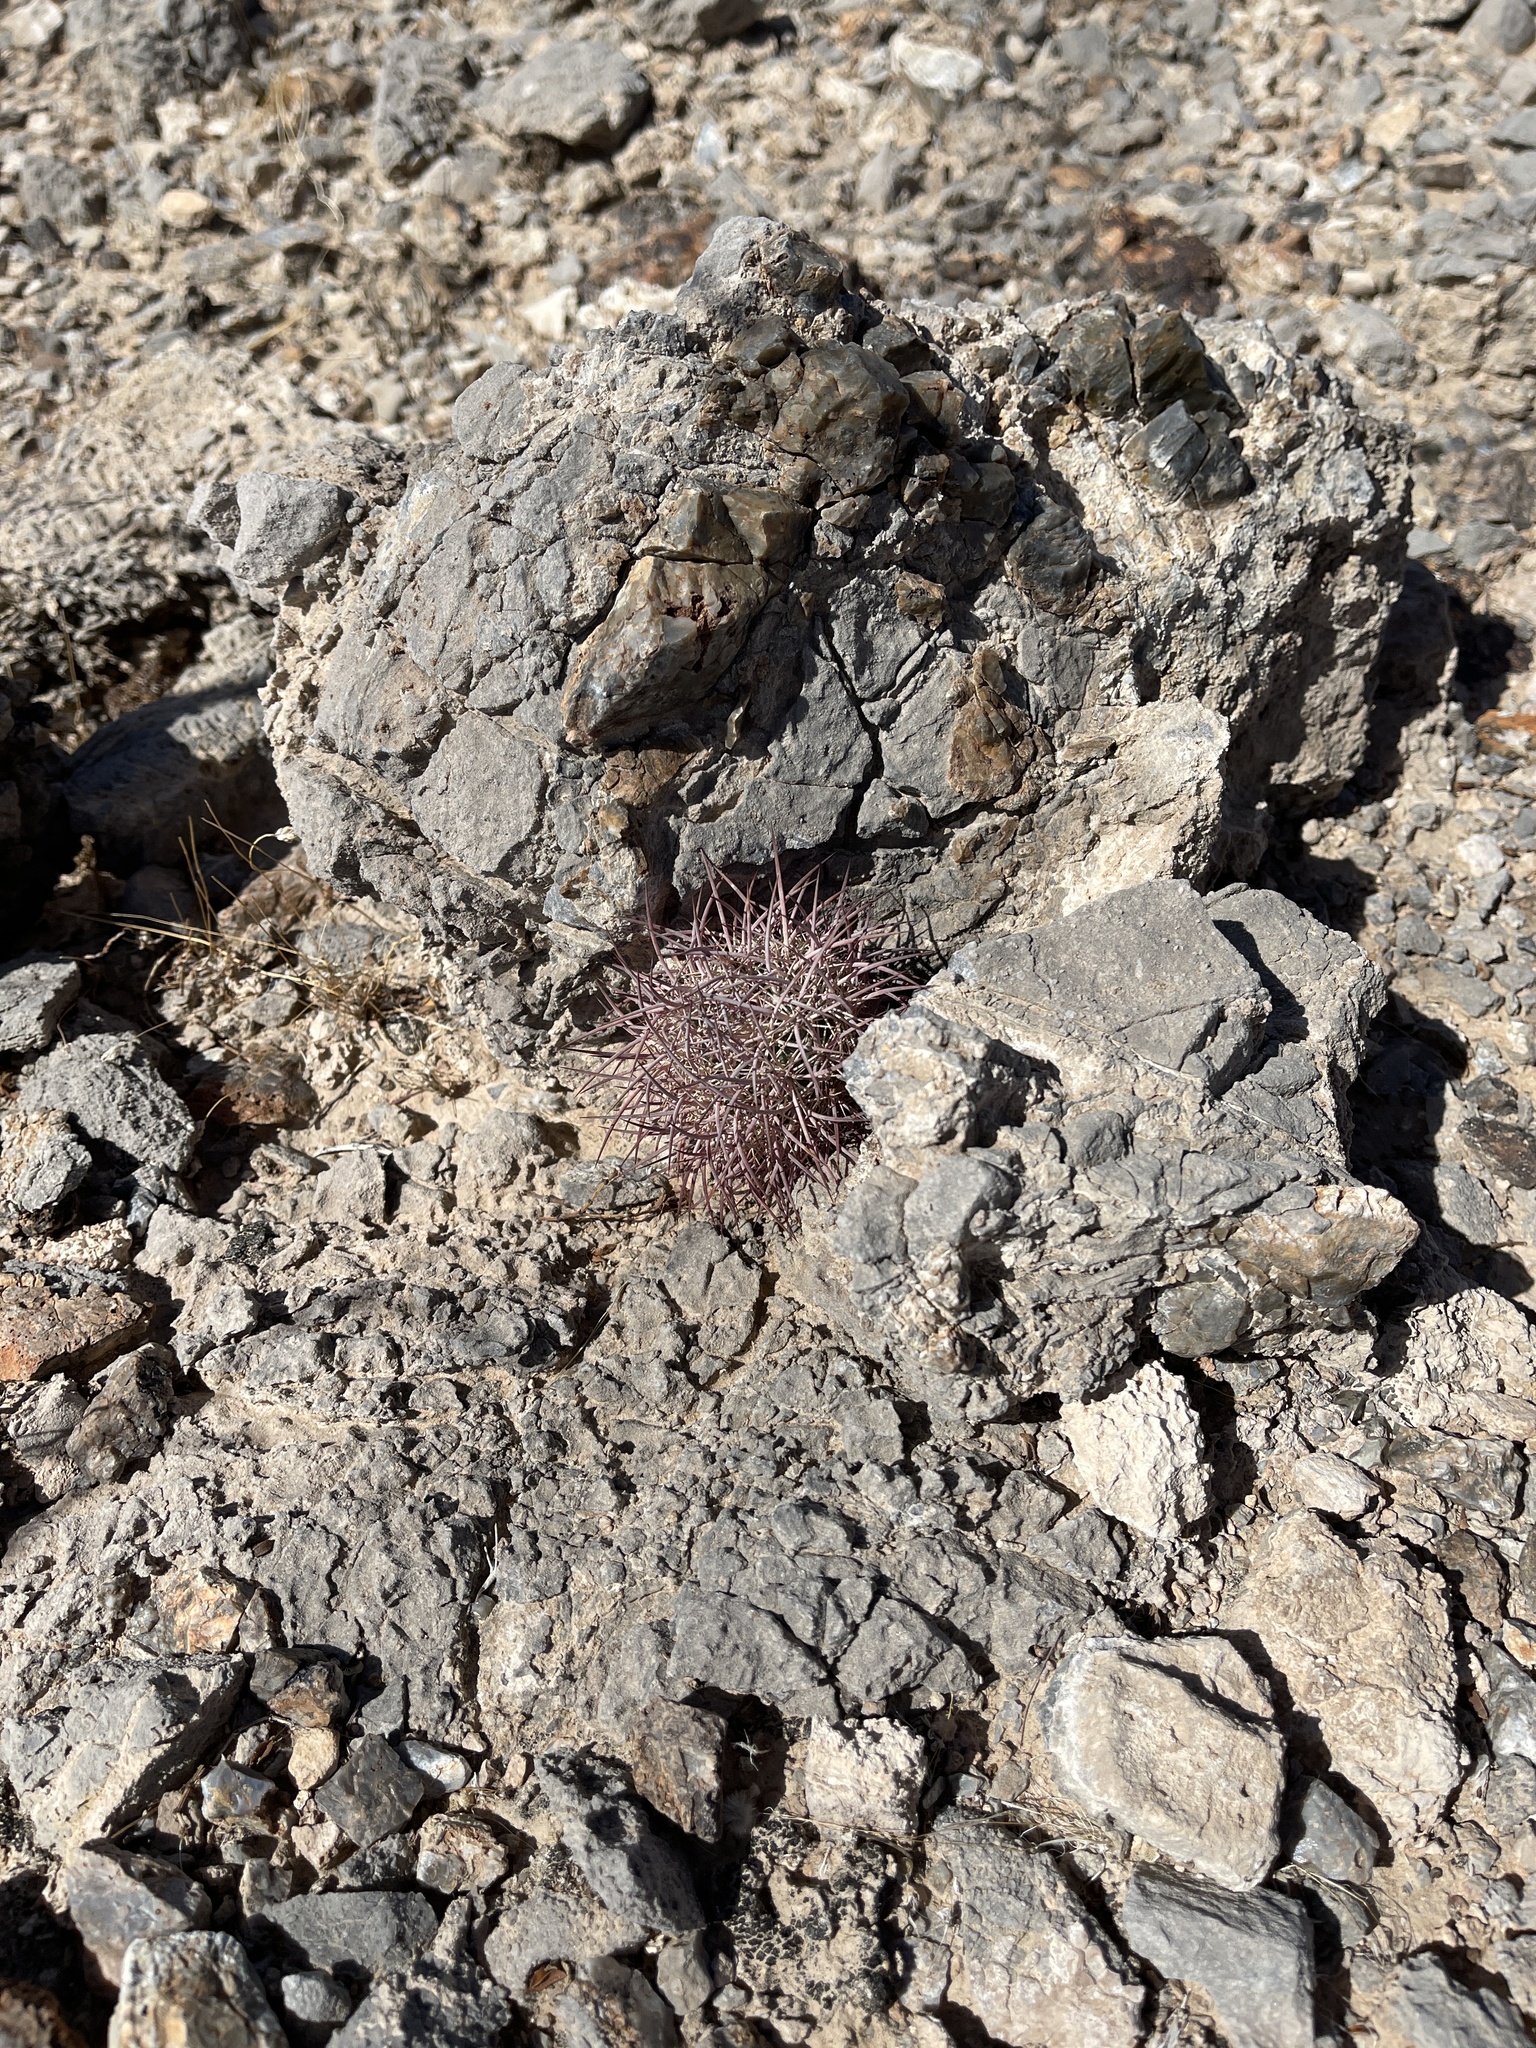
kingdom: Plantae
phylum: Tracheophyta
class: Magnoliopsida
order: Caryophyllales
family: Cactaceae
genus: Sclerocactus
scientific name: Sclerocactus johnsonii
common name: Eight-spine fishhook cactus
